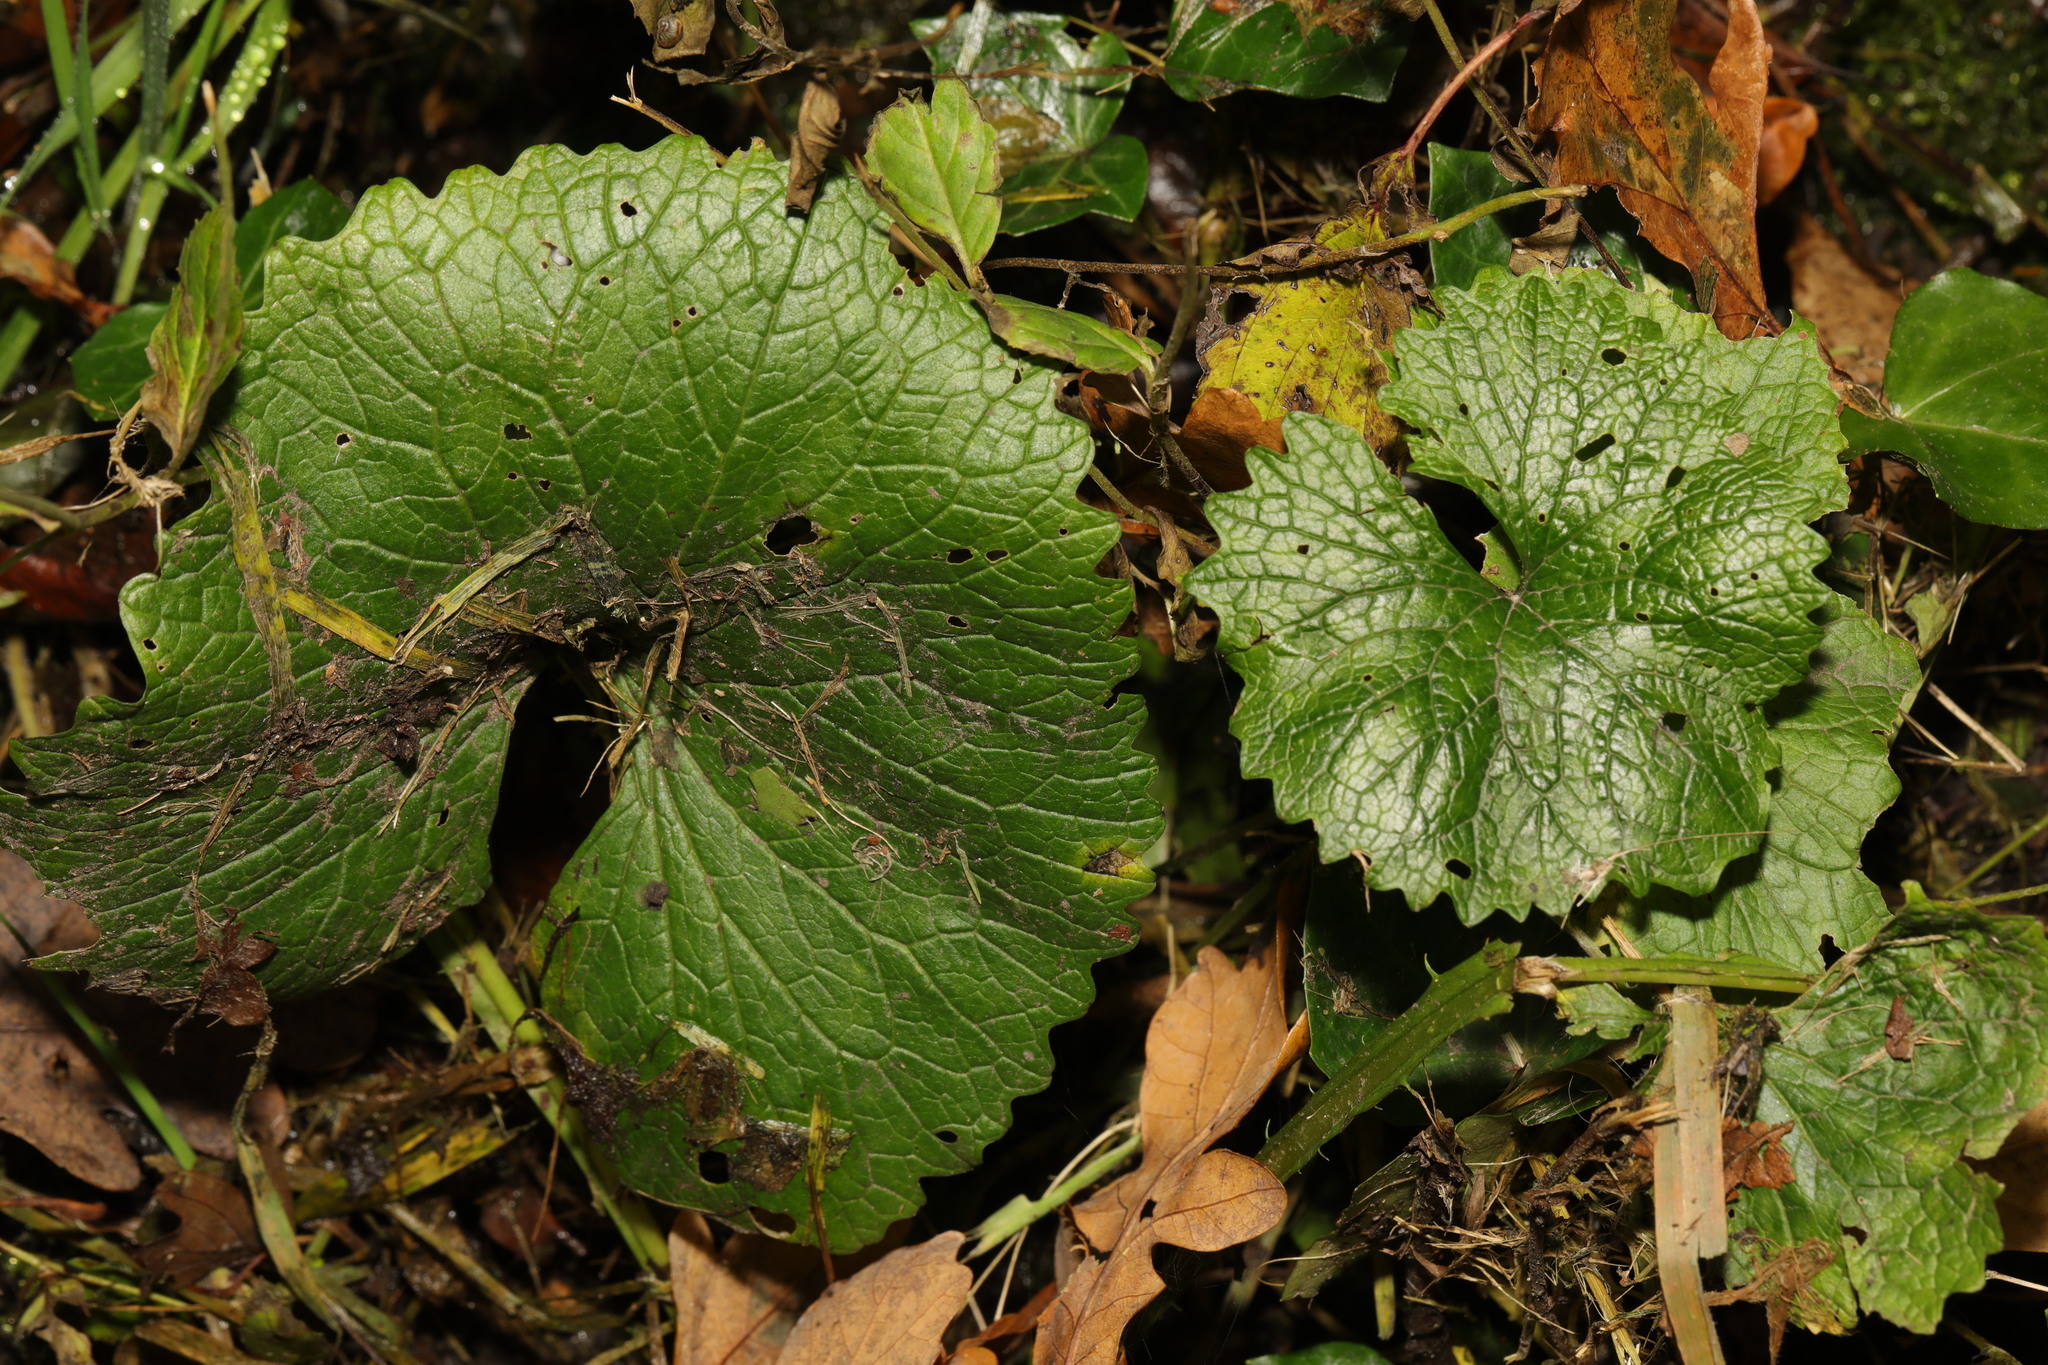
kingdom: Plantae
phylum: Tracheophyta
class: Magnoliopsida
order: Brassicales
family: Brassicaceae
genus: Alliaria
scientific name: Alliaria petiolata
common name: Garlic mustard
